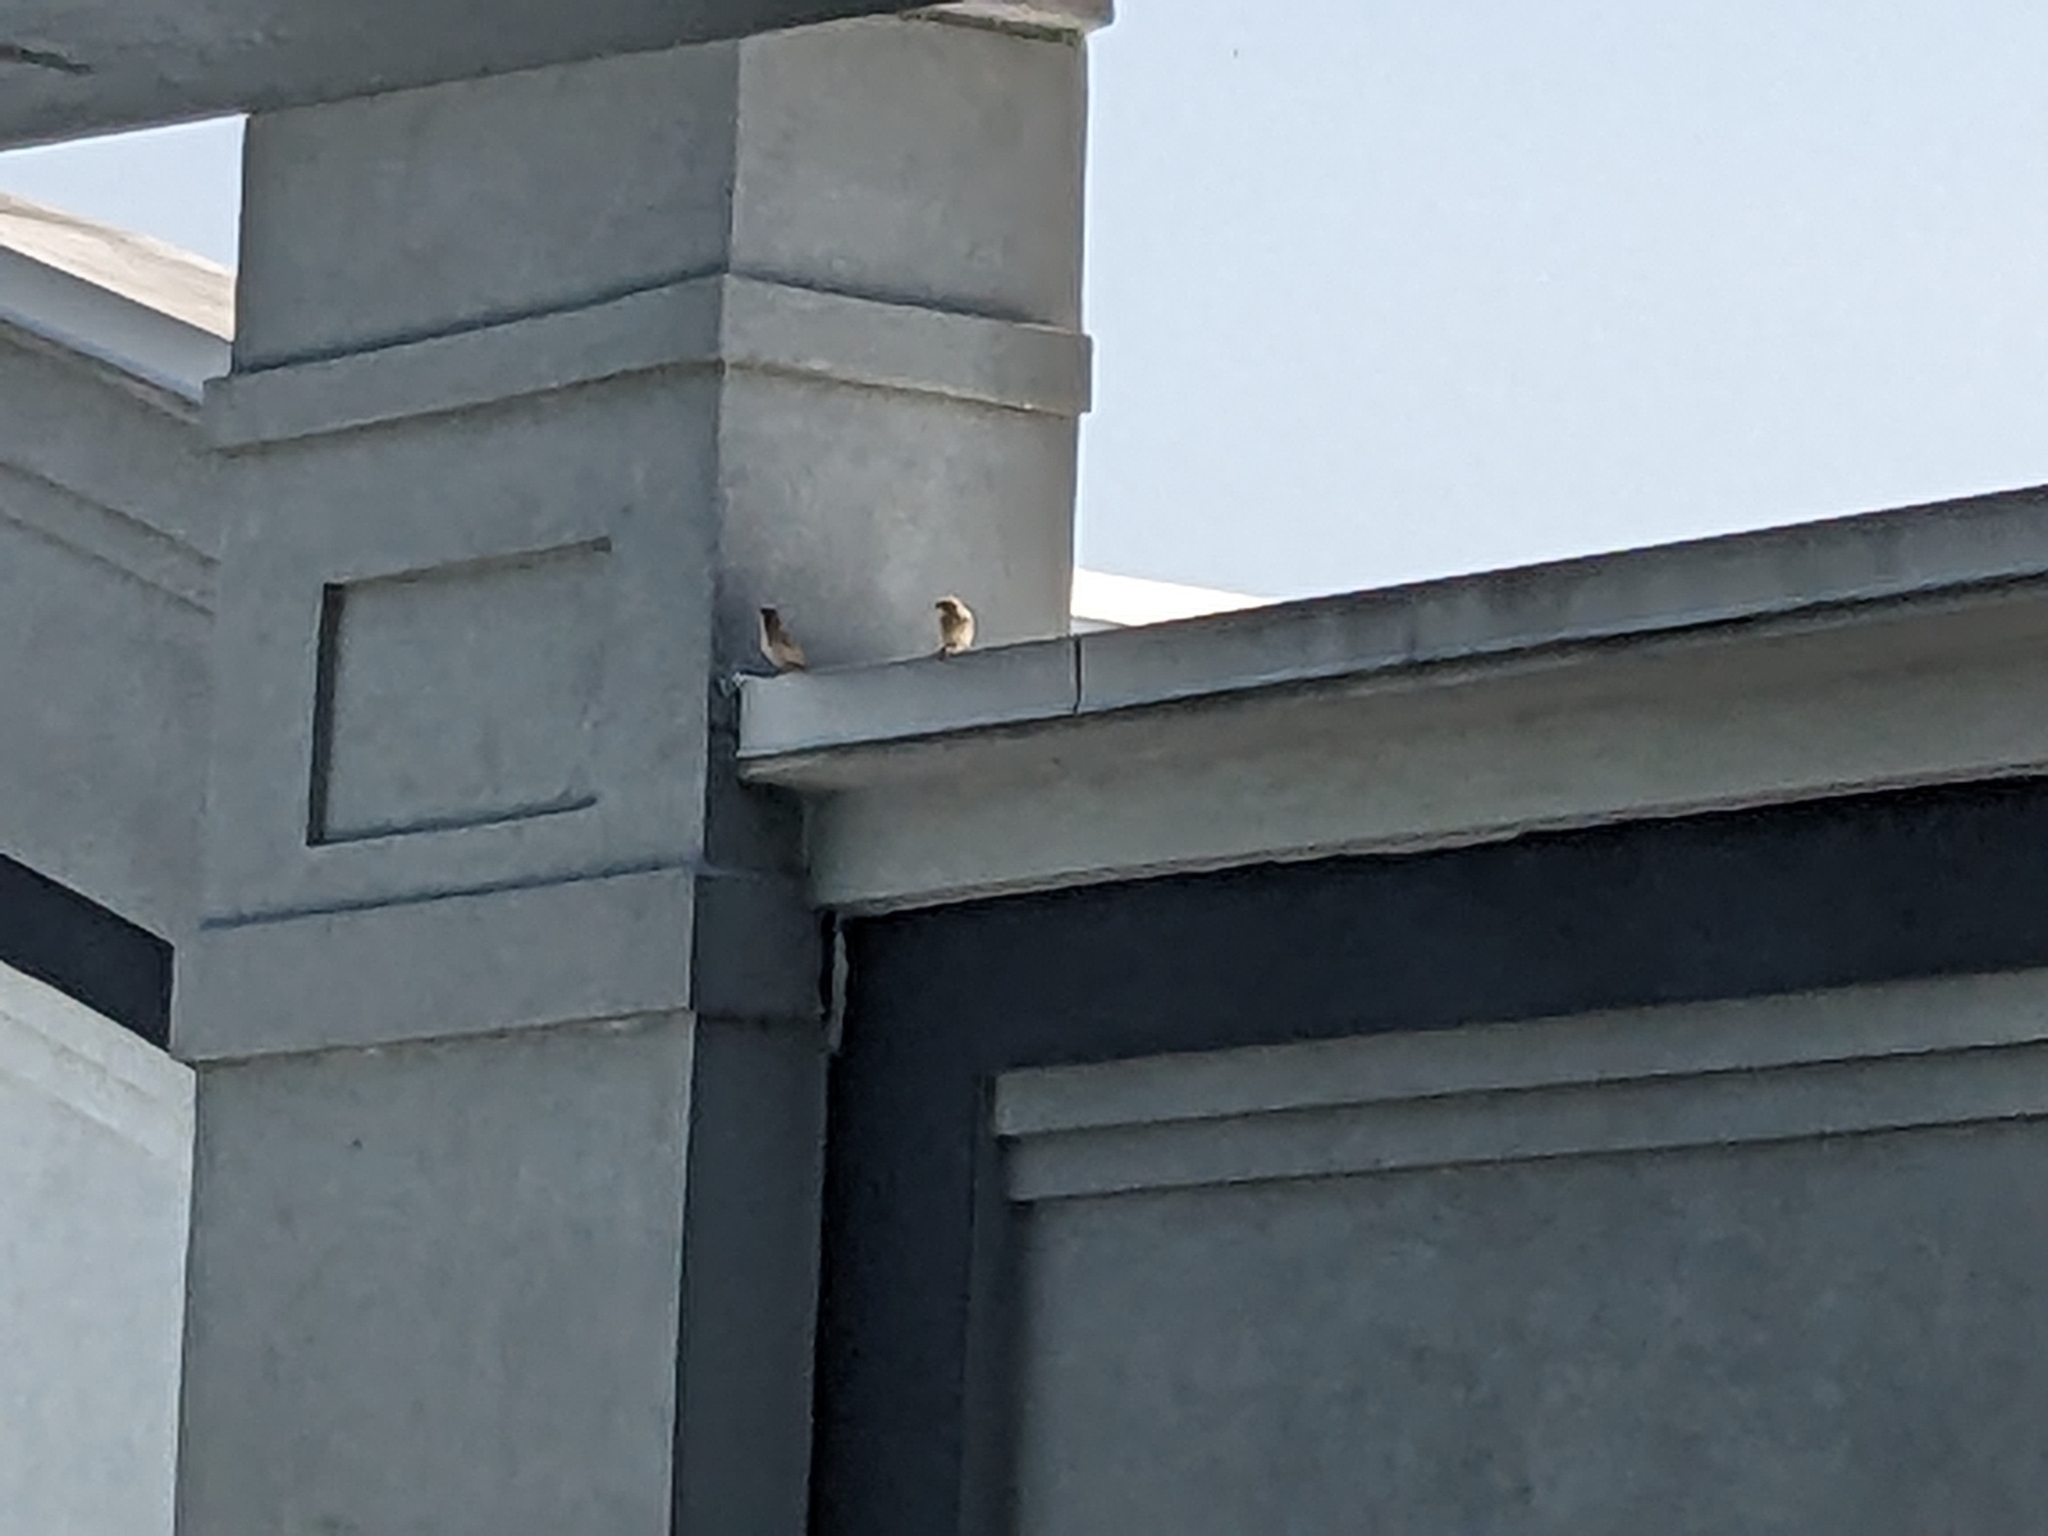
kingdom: Animalia
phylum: Chordata
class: Aves
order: Passeriformes
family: Passeridae
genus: Passer
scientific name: Passer domesticus
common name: House sparrow
